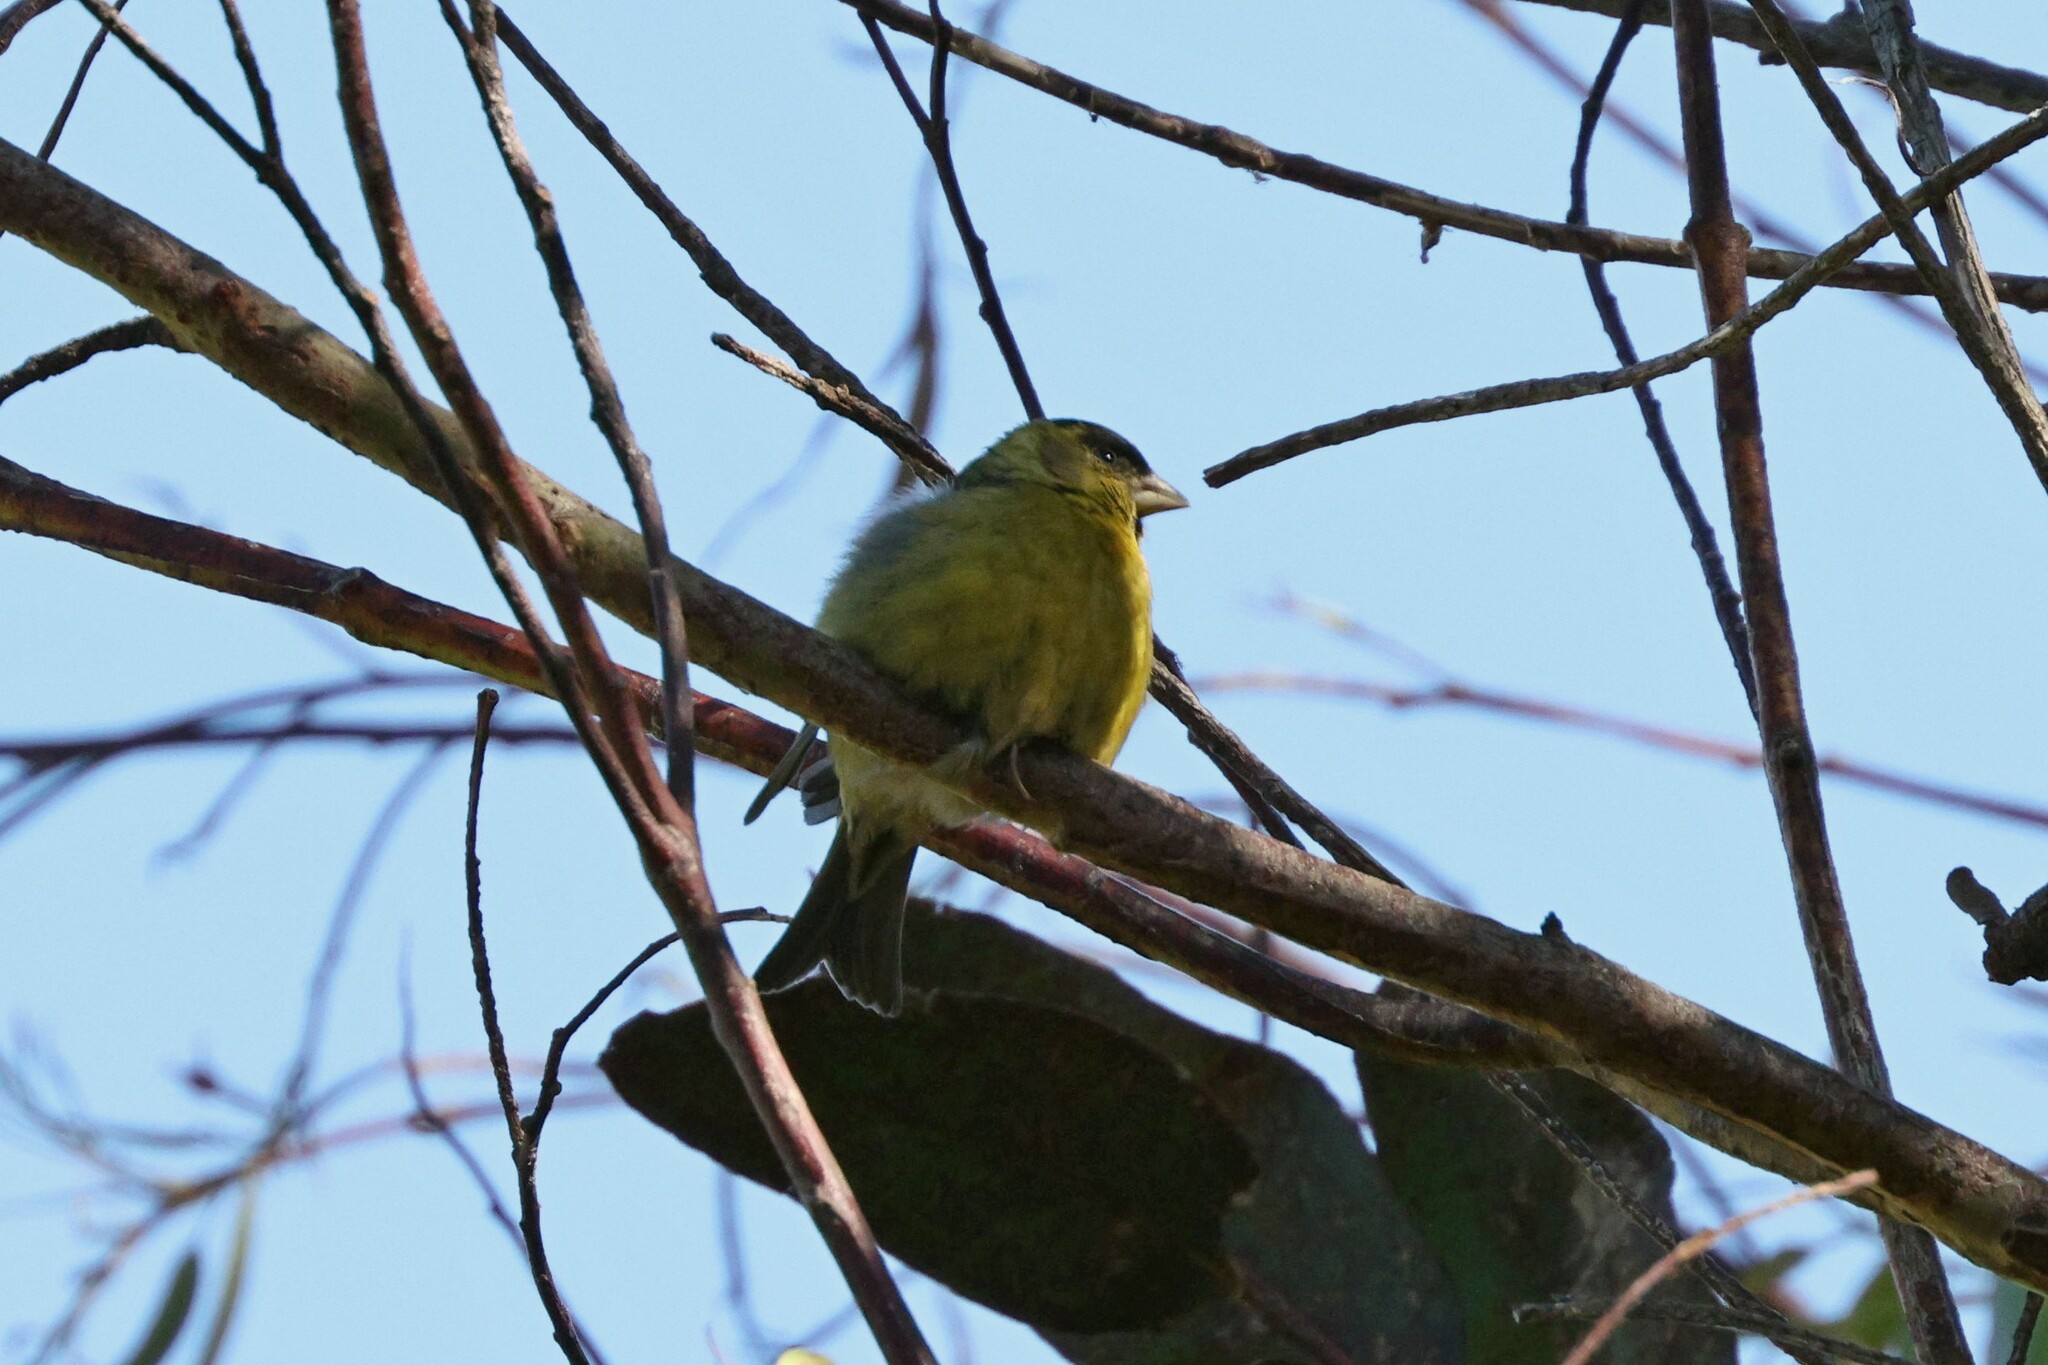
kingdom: Animalia
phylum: Chordata
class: Aves
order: Passeriformes
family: Fringillidae
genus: Spinus
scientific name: Spinus barbatus
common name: Black-chinned siskin
